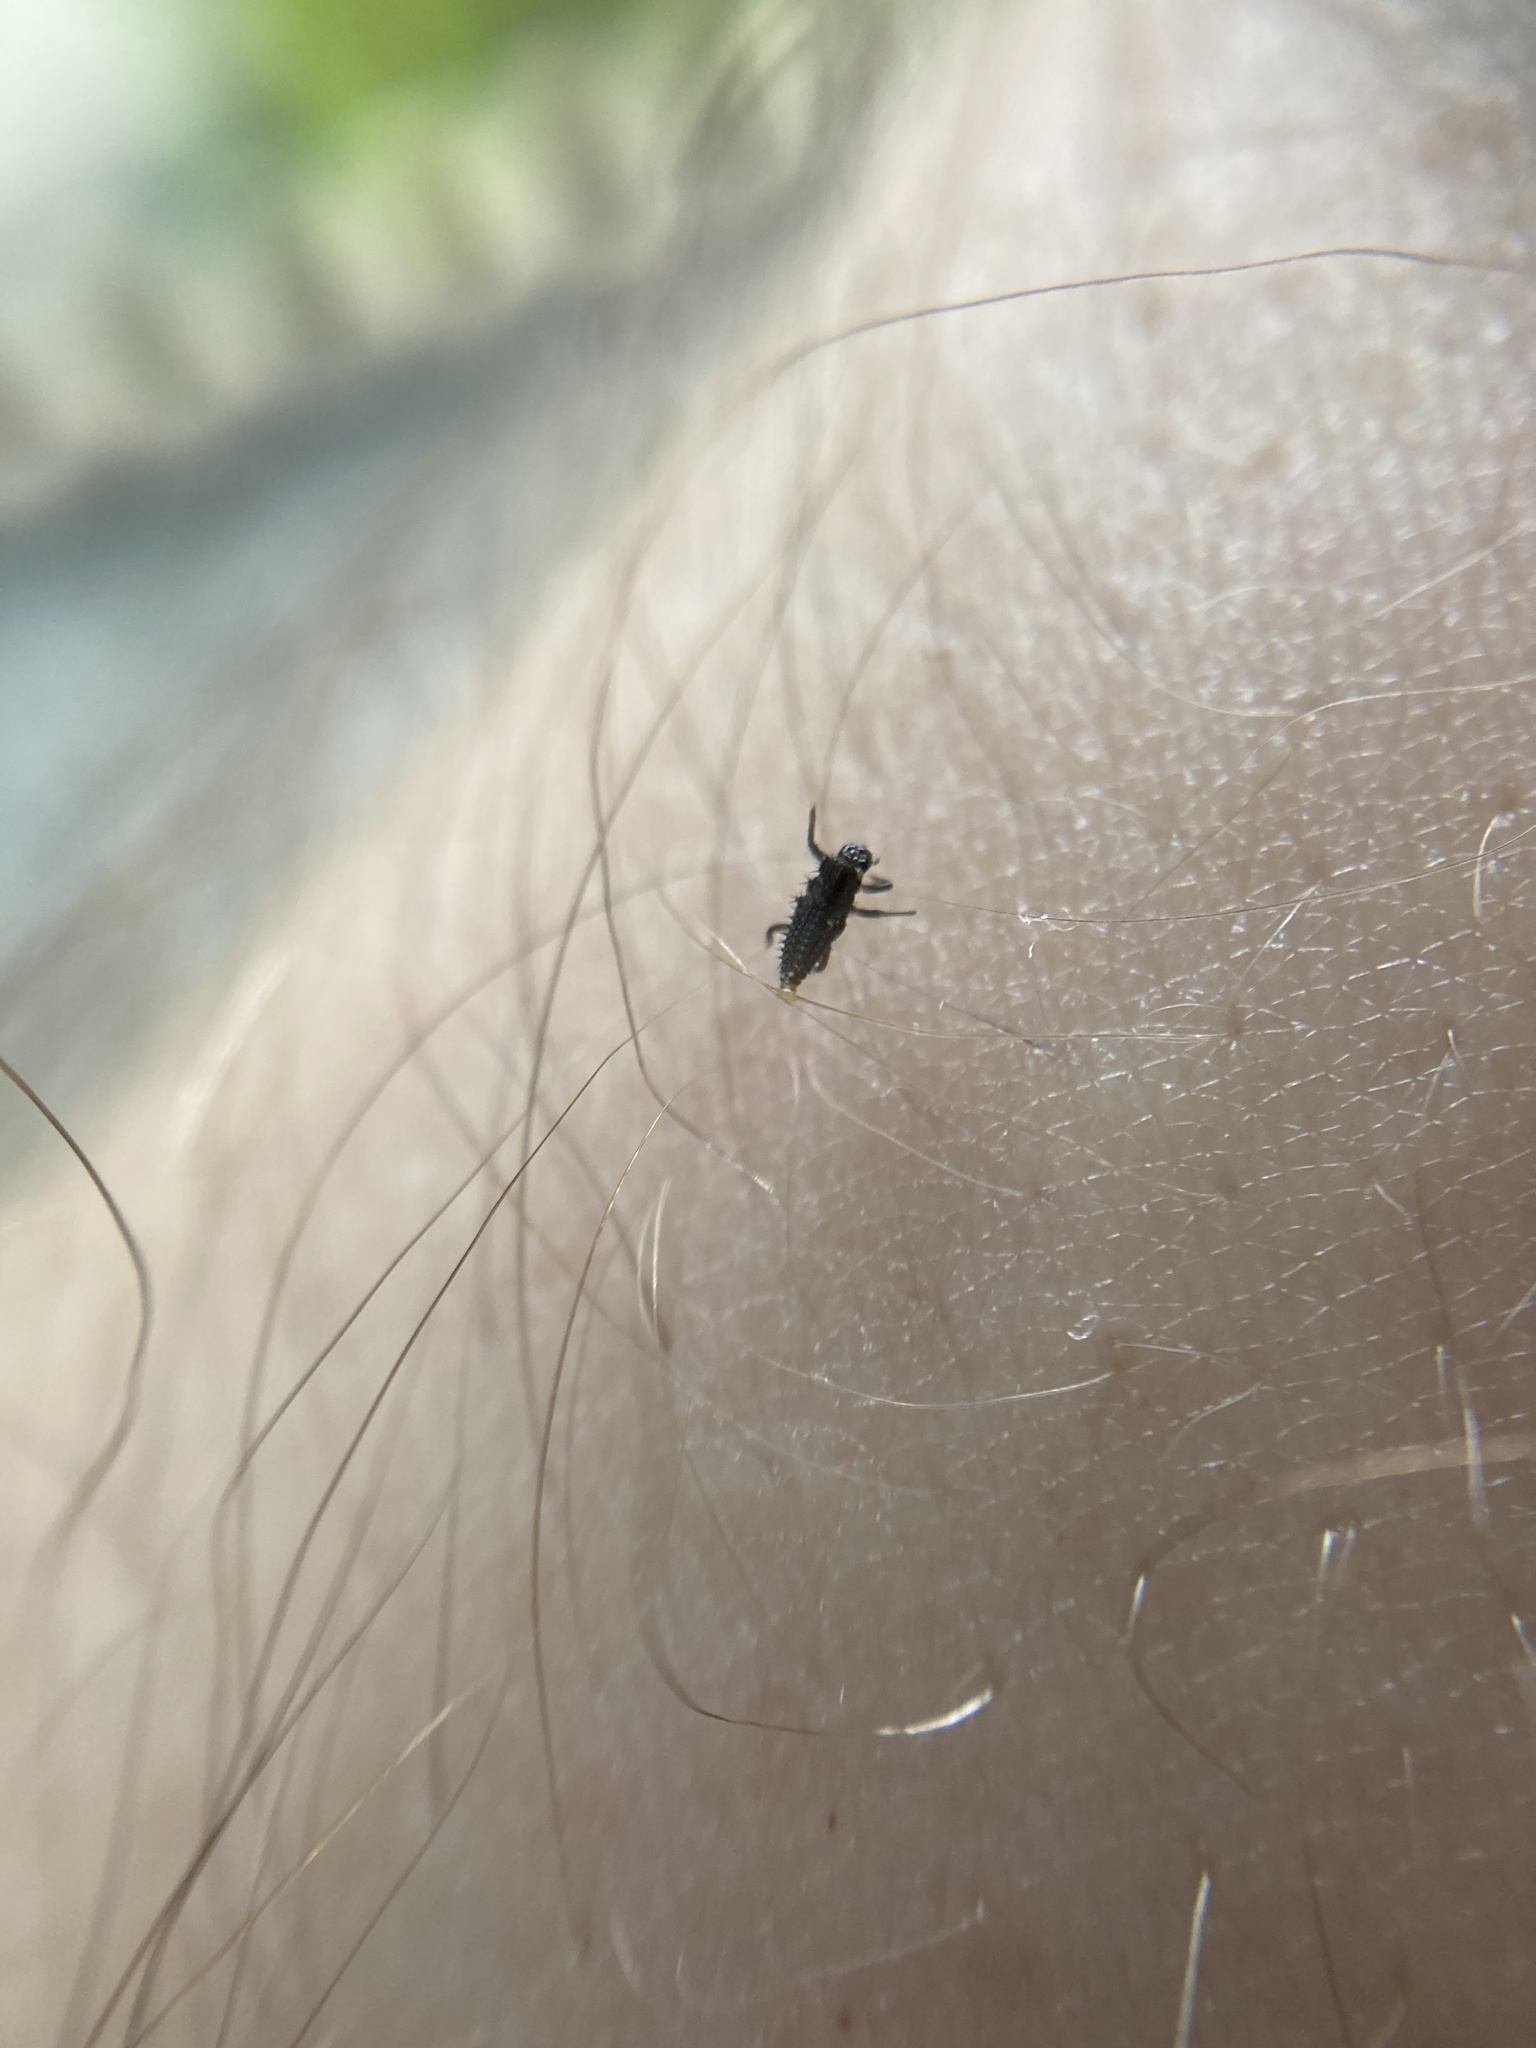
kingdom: Animalia
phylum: Arthropoda
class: Insecta
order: Coleoptera
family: Coccinellidae
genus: Harmonia
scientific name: Harmonia axyridis
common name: Harlequin ladybird
